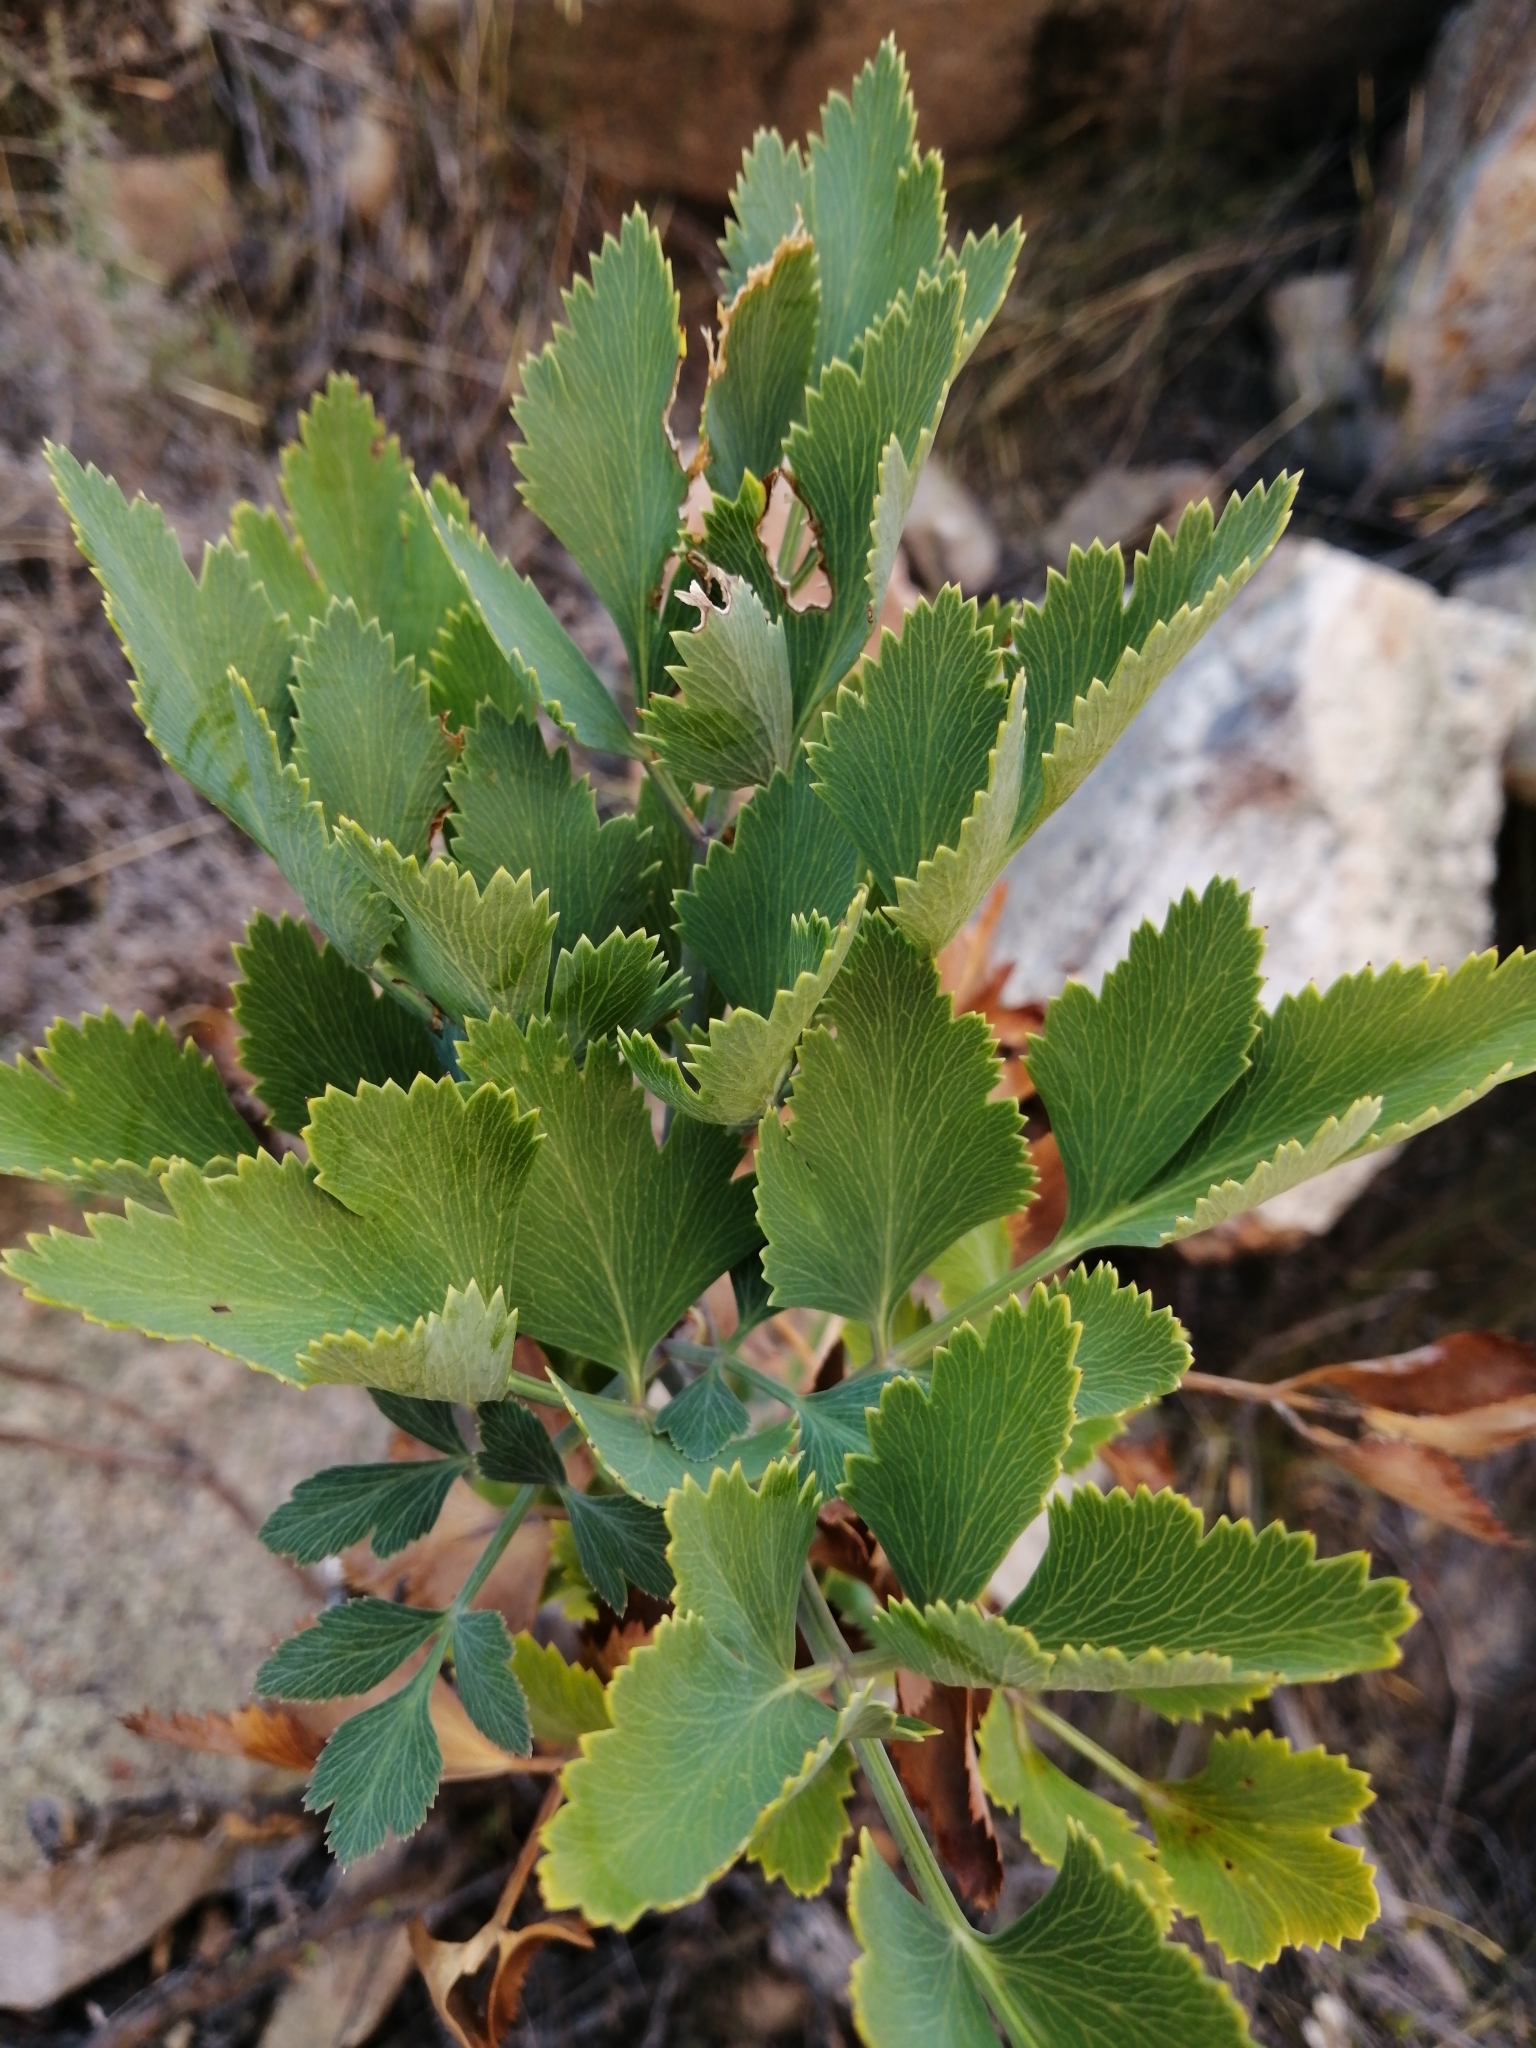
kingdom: Plantae
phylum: Tracheophyta
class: Magnoliopsida
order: Apiales
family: Apiaceae
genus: Notobubon
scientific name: Notobubon galbanum
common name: Blisterbush
